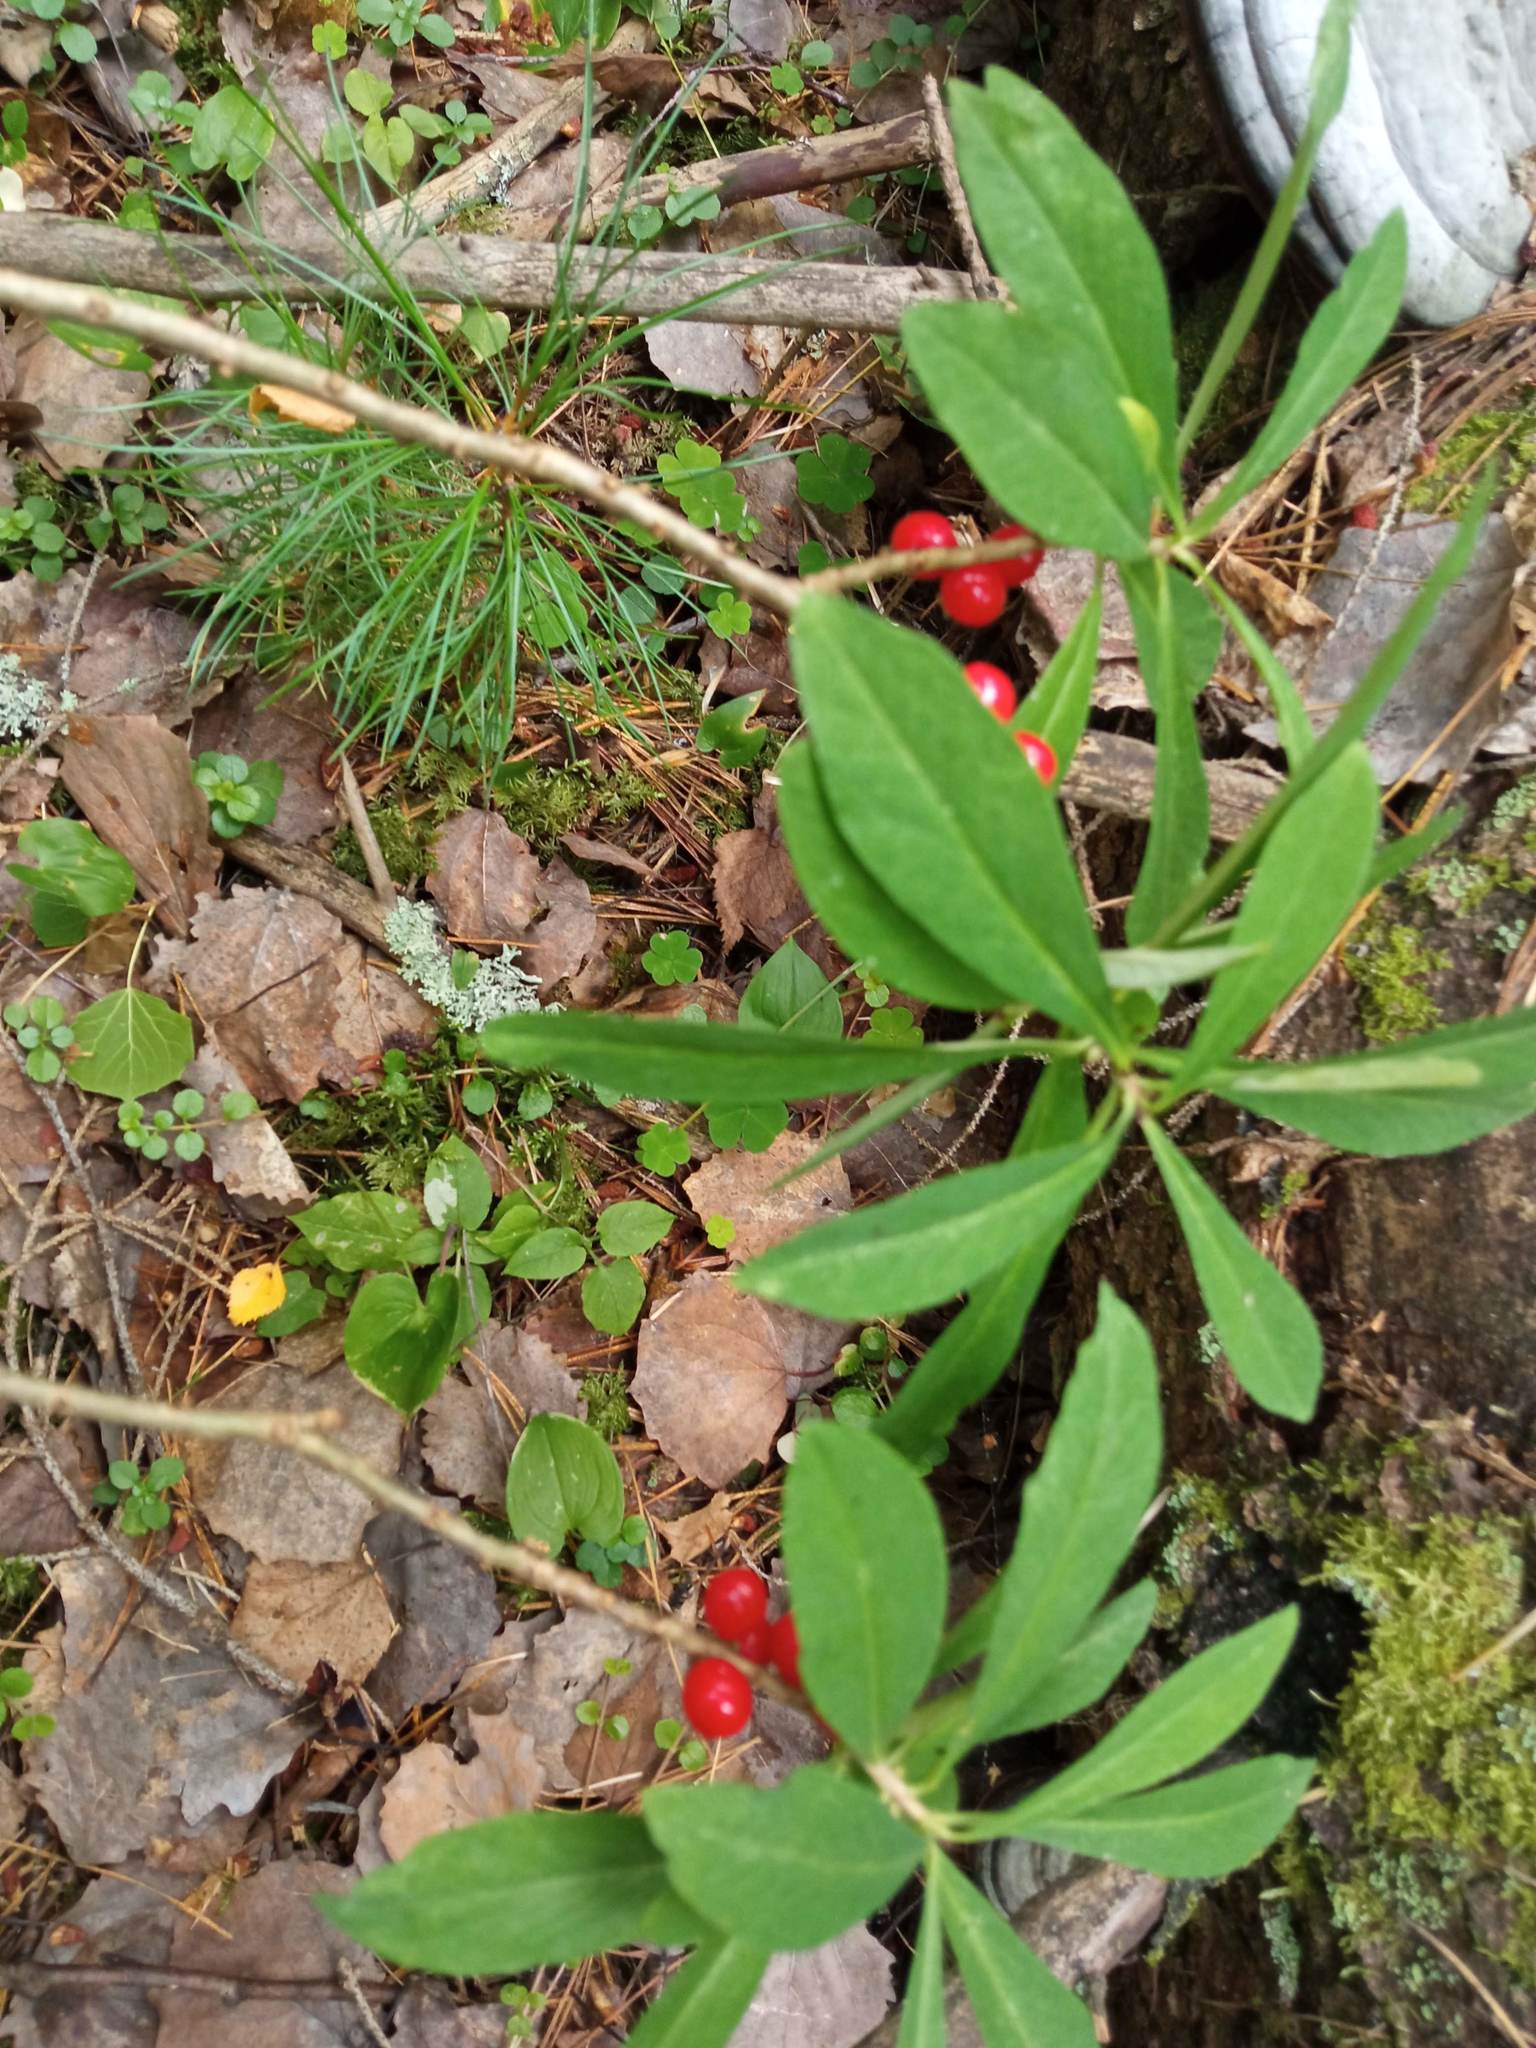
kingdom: Plantae
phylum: Tracheophyta
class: Magnoliopsida
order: Malvales
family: Thymelaeaceae
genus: Daphne
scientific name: Daphne mezereum
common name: Mezereon
